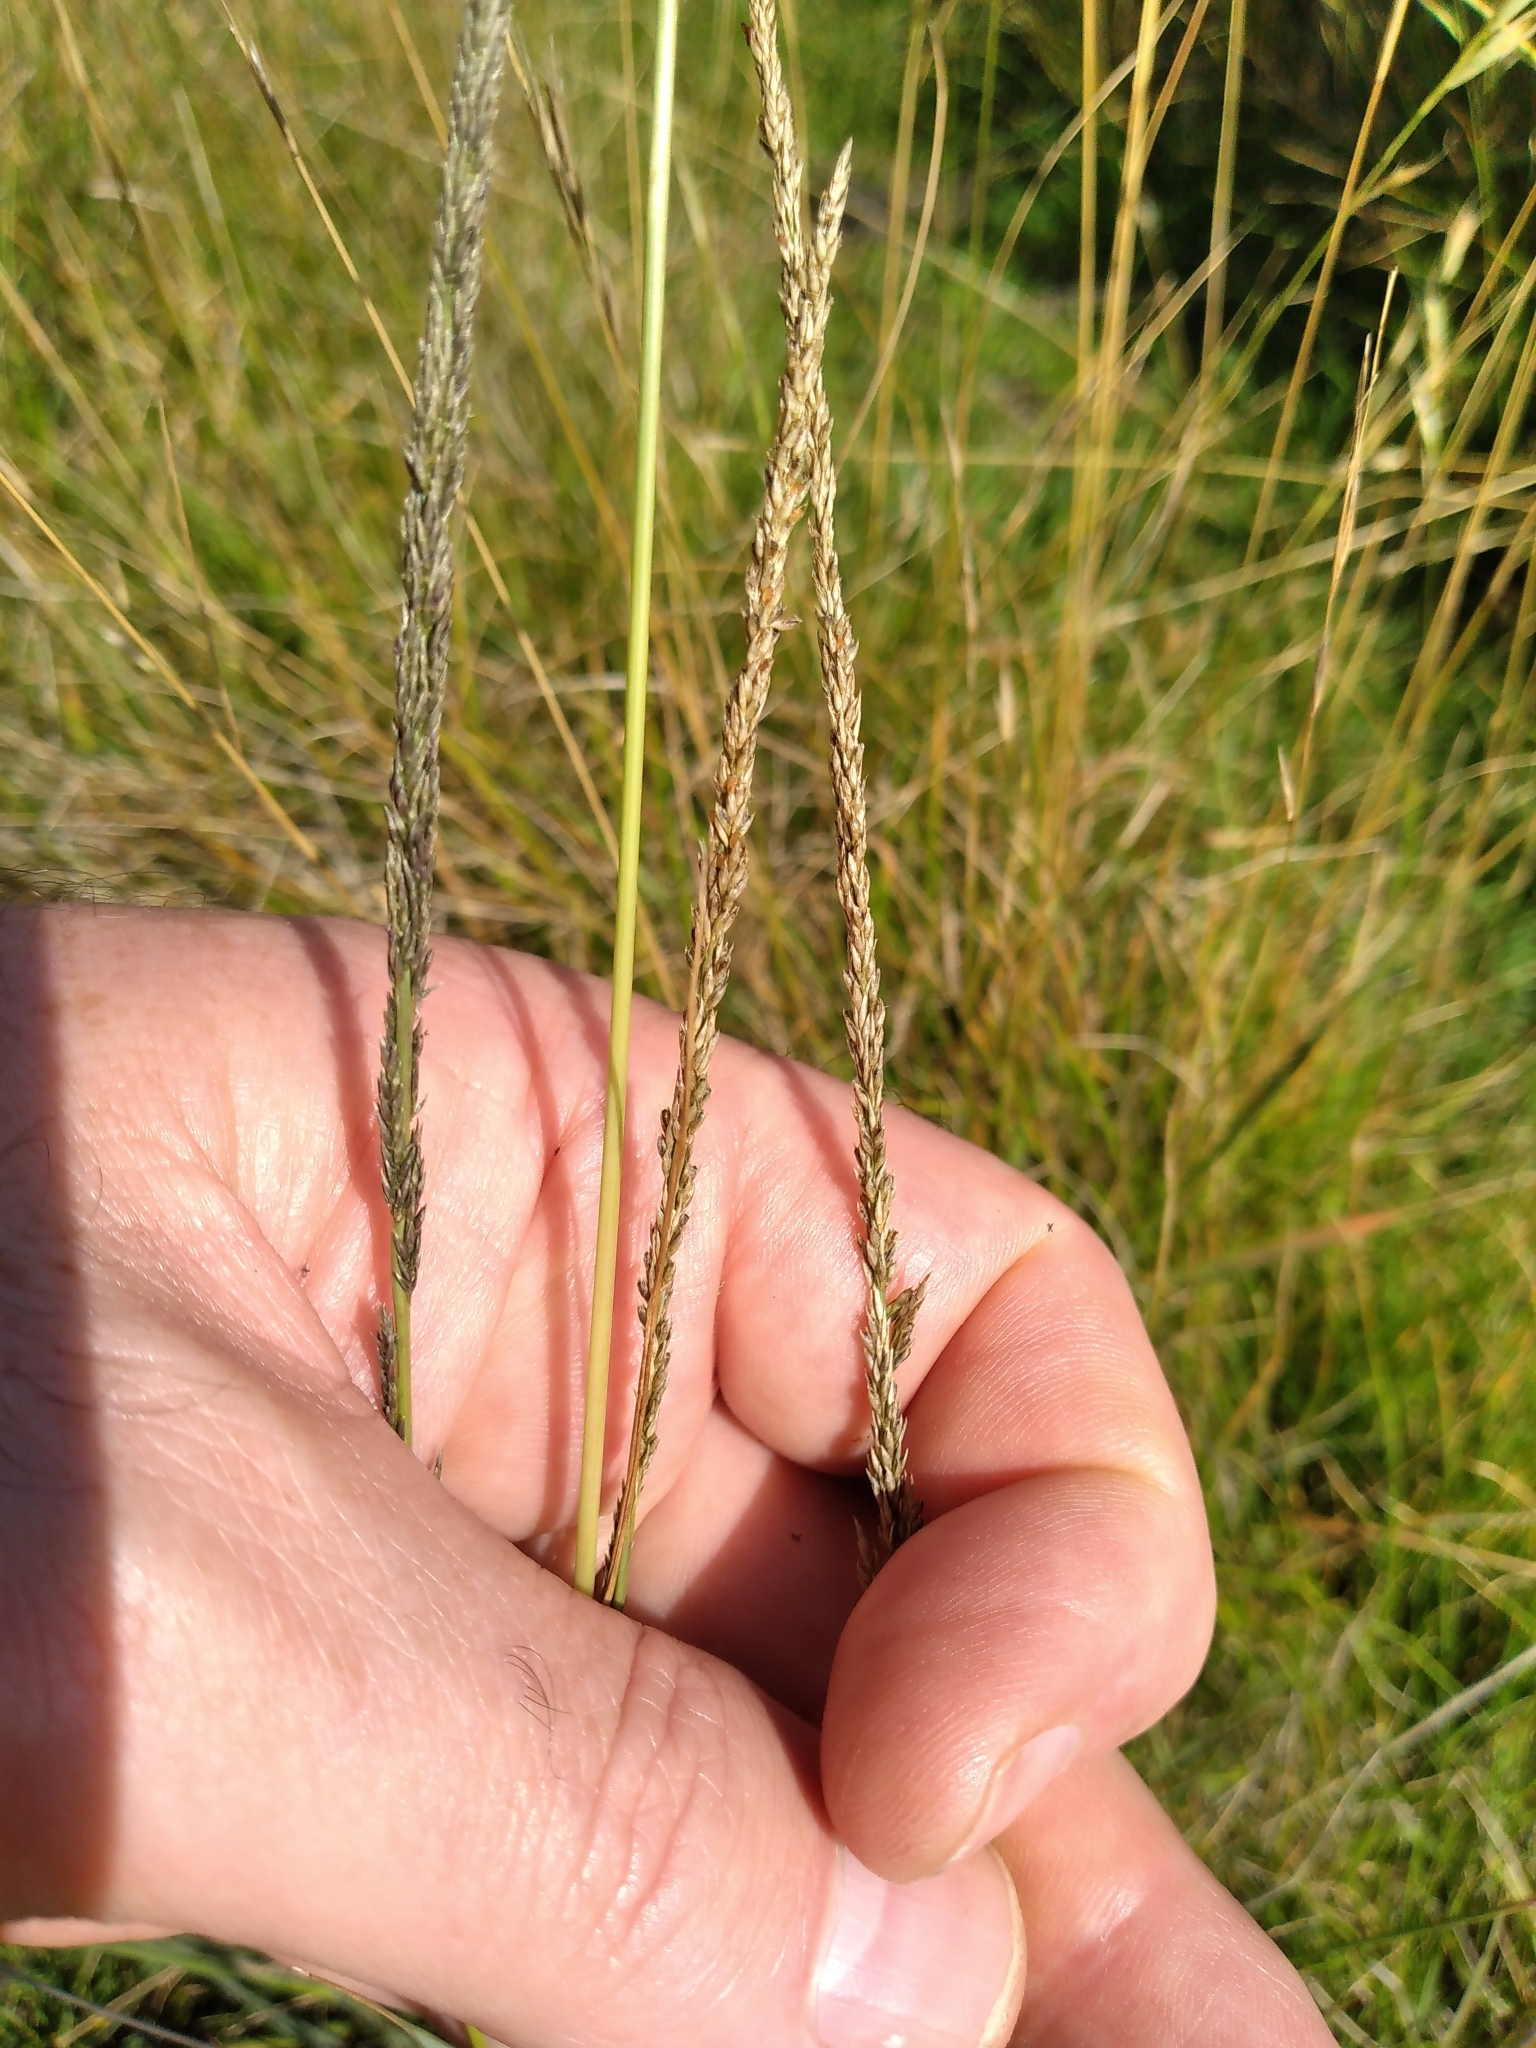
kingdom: Plantae
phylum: Tracheophyta
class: Liliopsida
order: Poales
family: Poaceae
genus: Sporobolus
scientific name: Sporobolus africanus
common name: African dropseed
